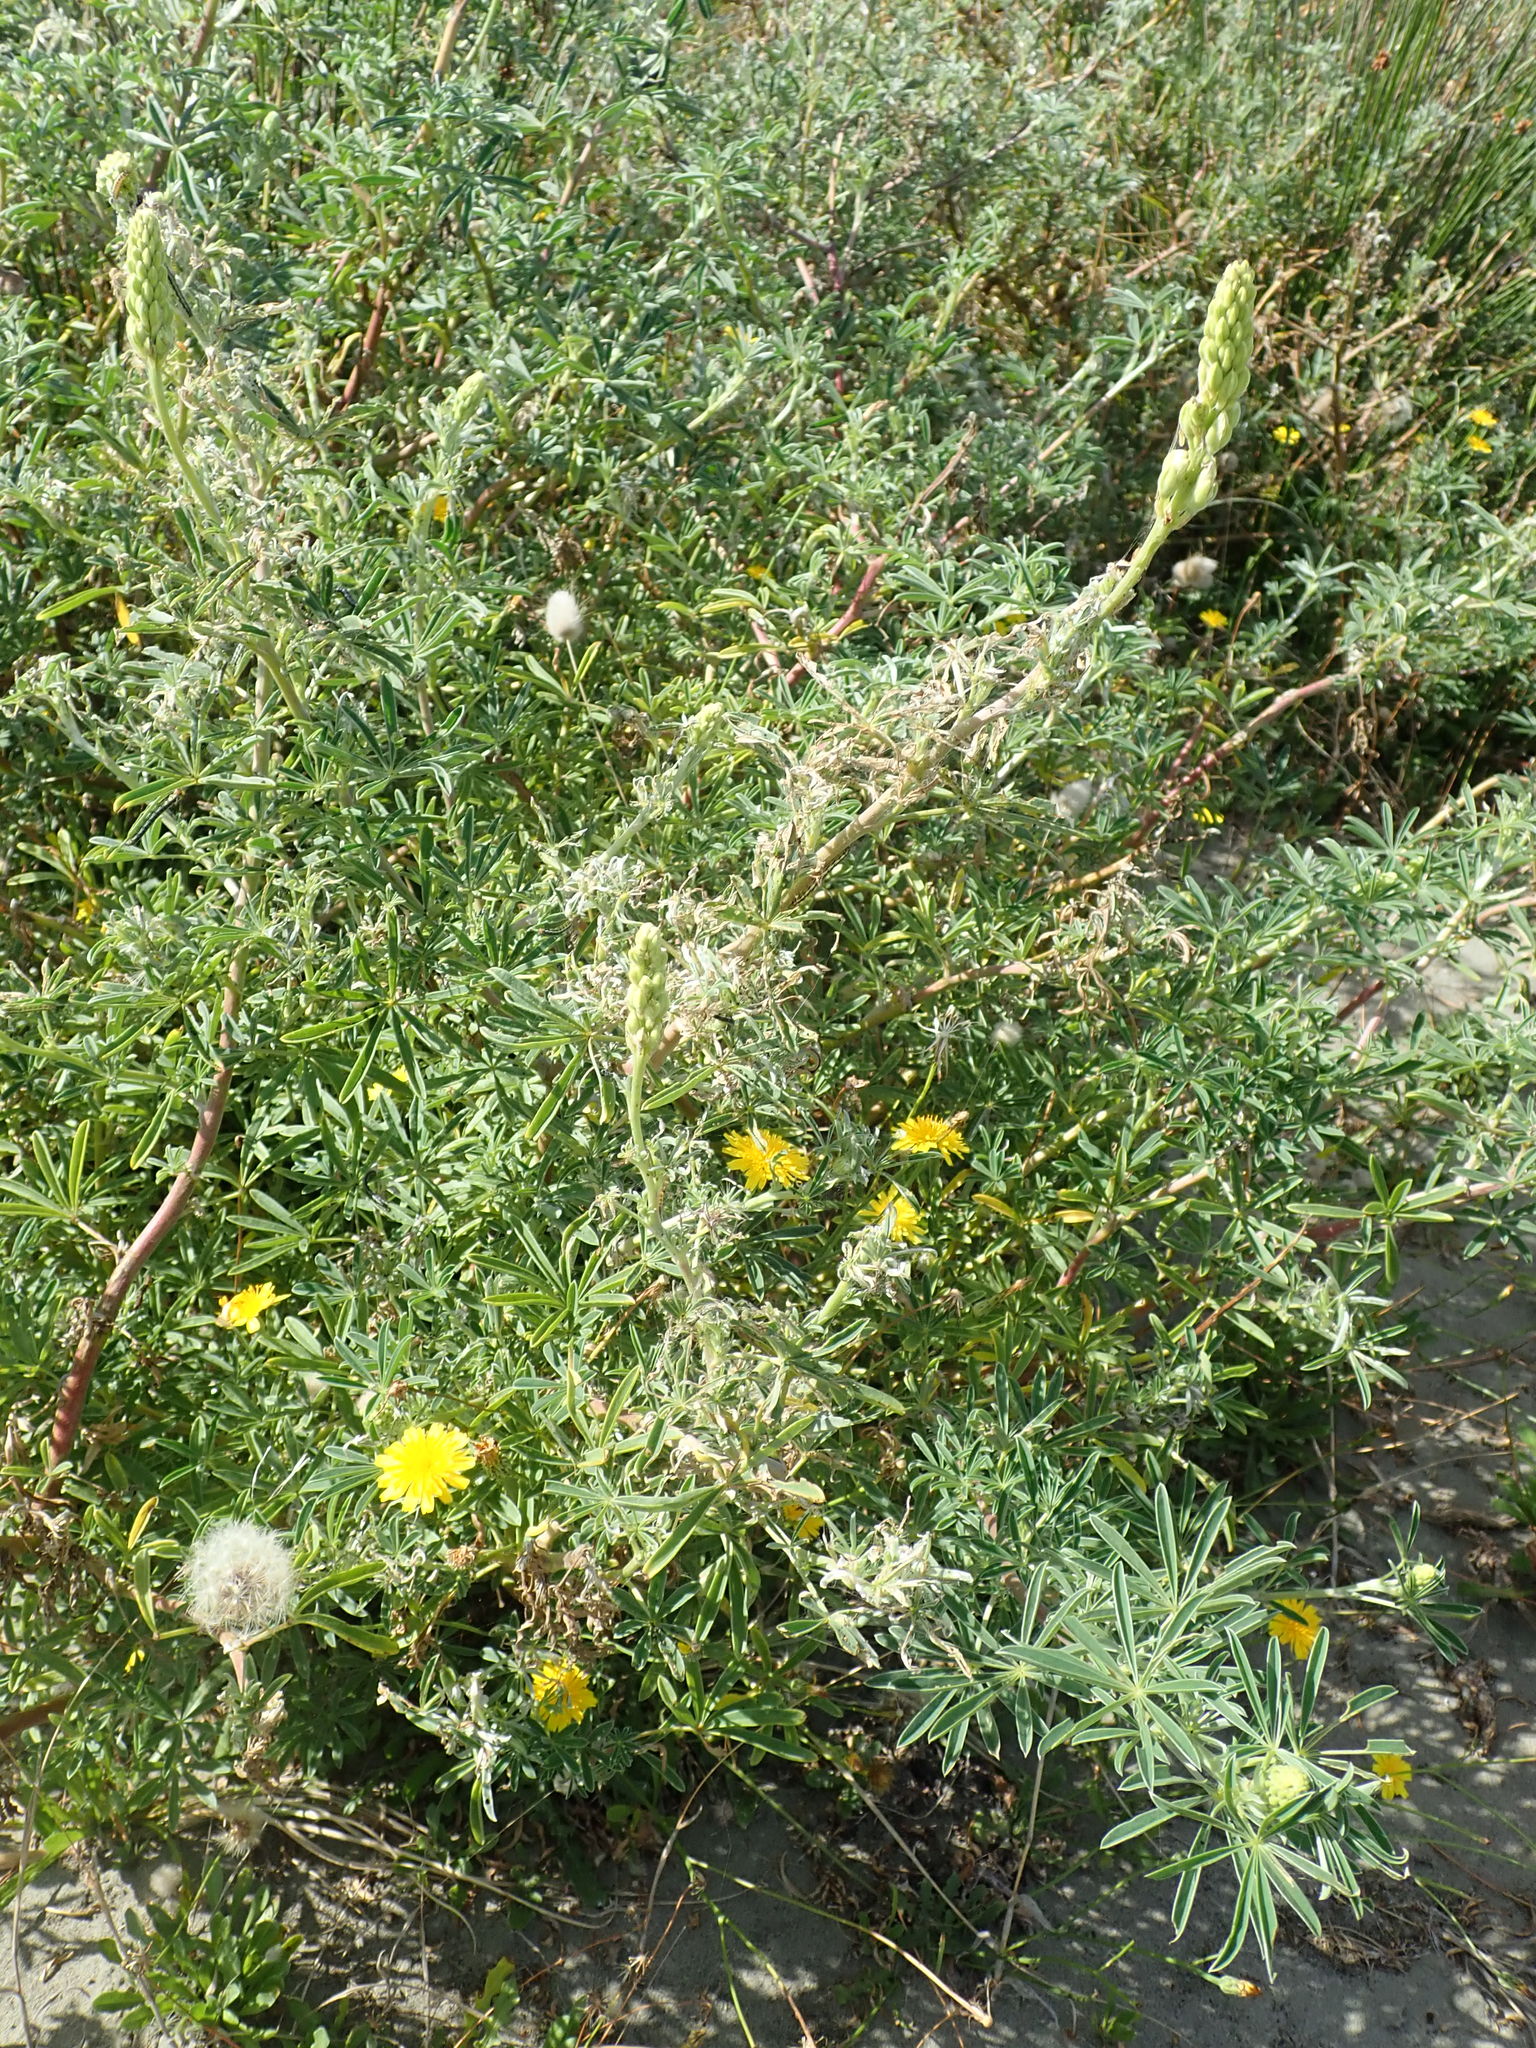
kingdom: Plantae
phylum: Tracheophyta
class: Magnoliopsida
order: Fabales
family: Fabaceae
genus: Lupinus
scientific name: Lupinus arboreus
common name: Yellow bush lupine
